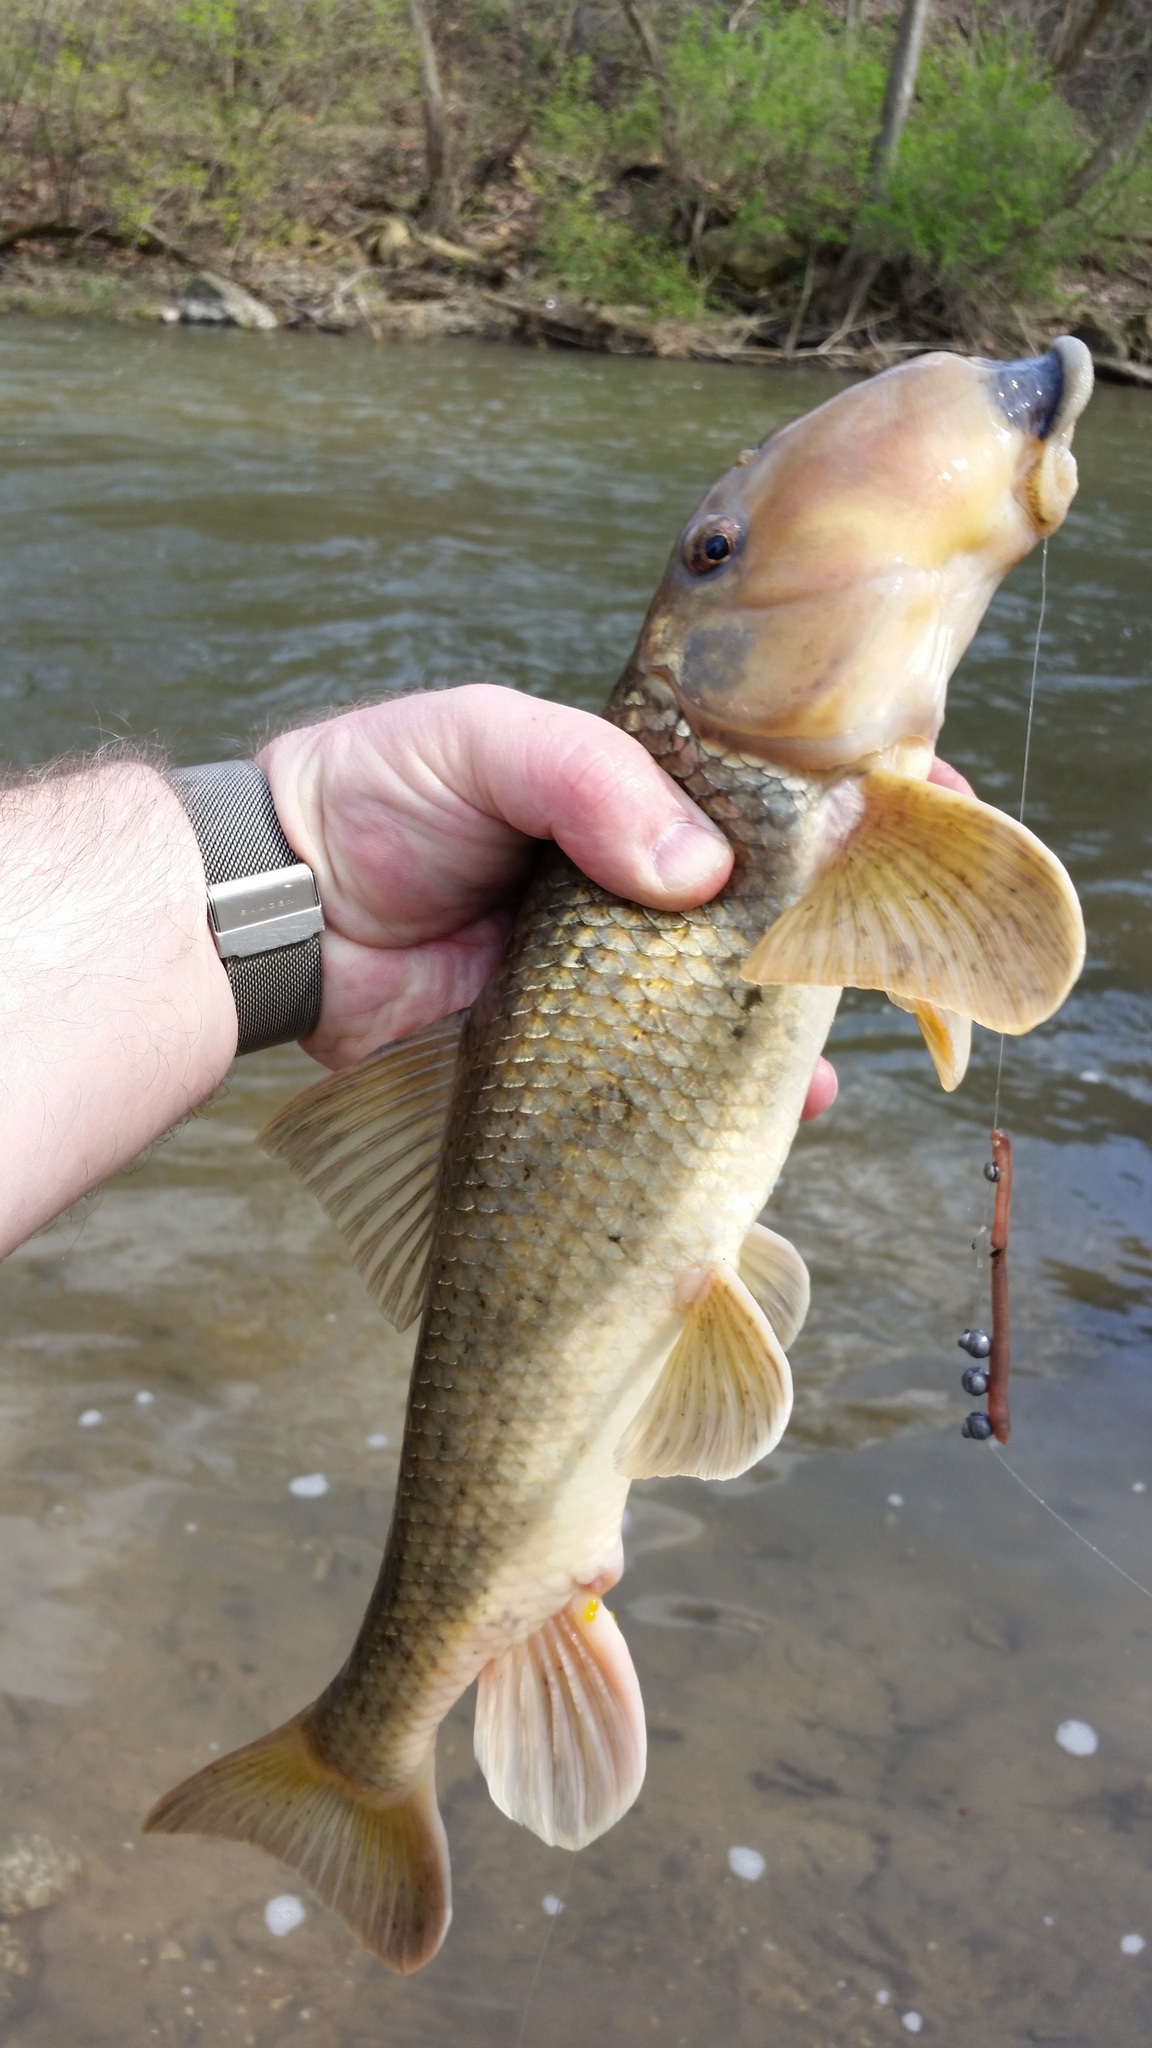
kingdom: Animalia
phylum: Chordata
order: Cypriniformes
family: Catostomidae
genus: Hypentelium
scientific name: Hypentelium nigricans
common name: Northern hog sucker
